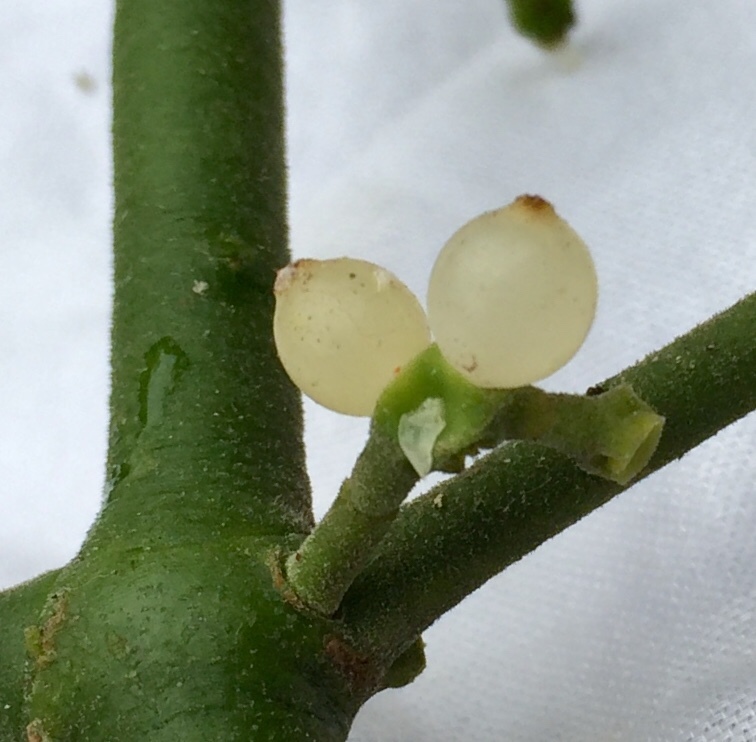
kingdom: Plantae
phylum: Tracheophyta
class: Magnoliopsida
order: Santalales
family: Viscaceae
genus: Phoradendron
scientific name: Phoradendron leucarpum
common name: Pacific mistletoe
